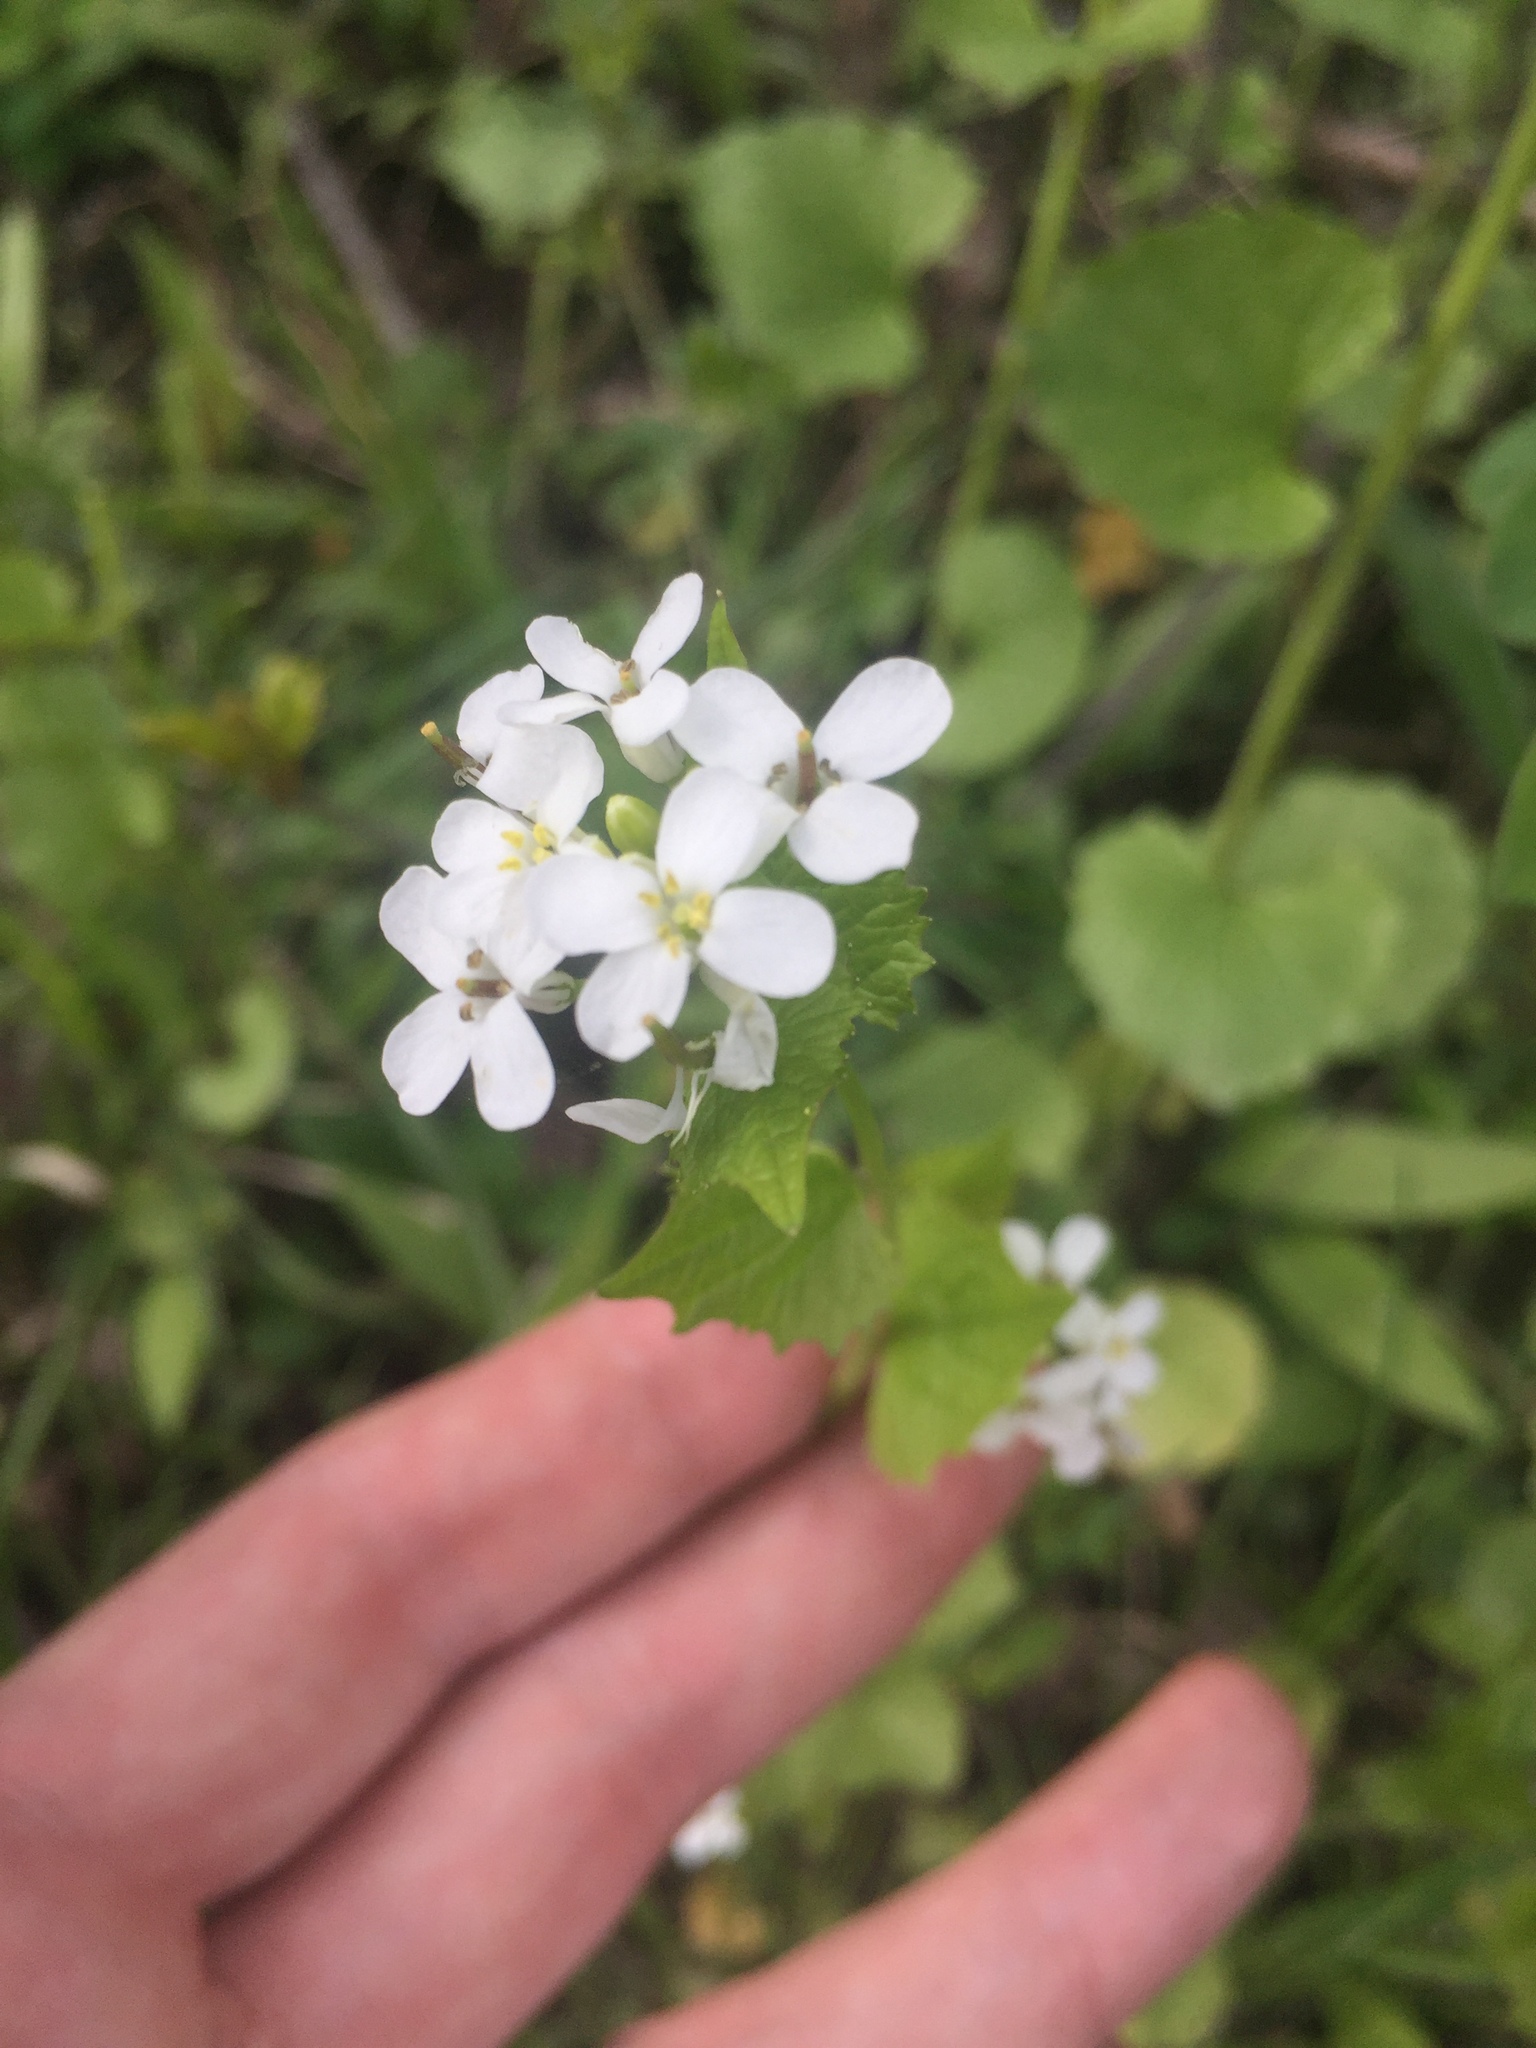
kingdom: Plantae
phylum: Tracheophyta
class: Magnoliopsida
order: Brassicales
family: Brassicaceae
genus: Alliaria
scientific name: Alliaria petiolata
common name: Garlic mustard
